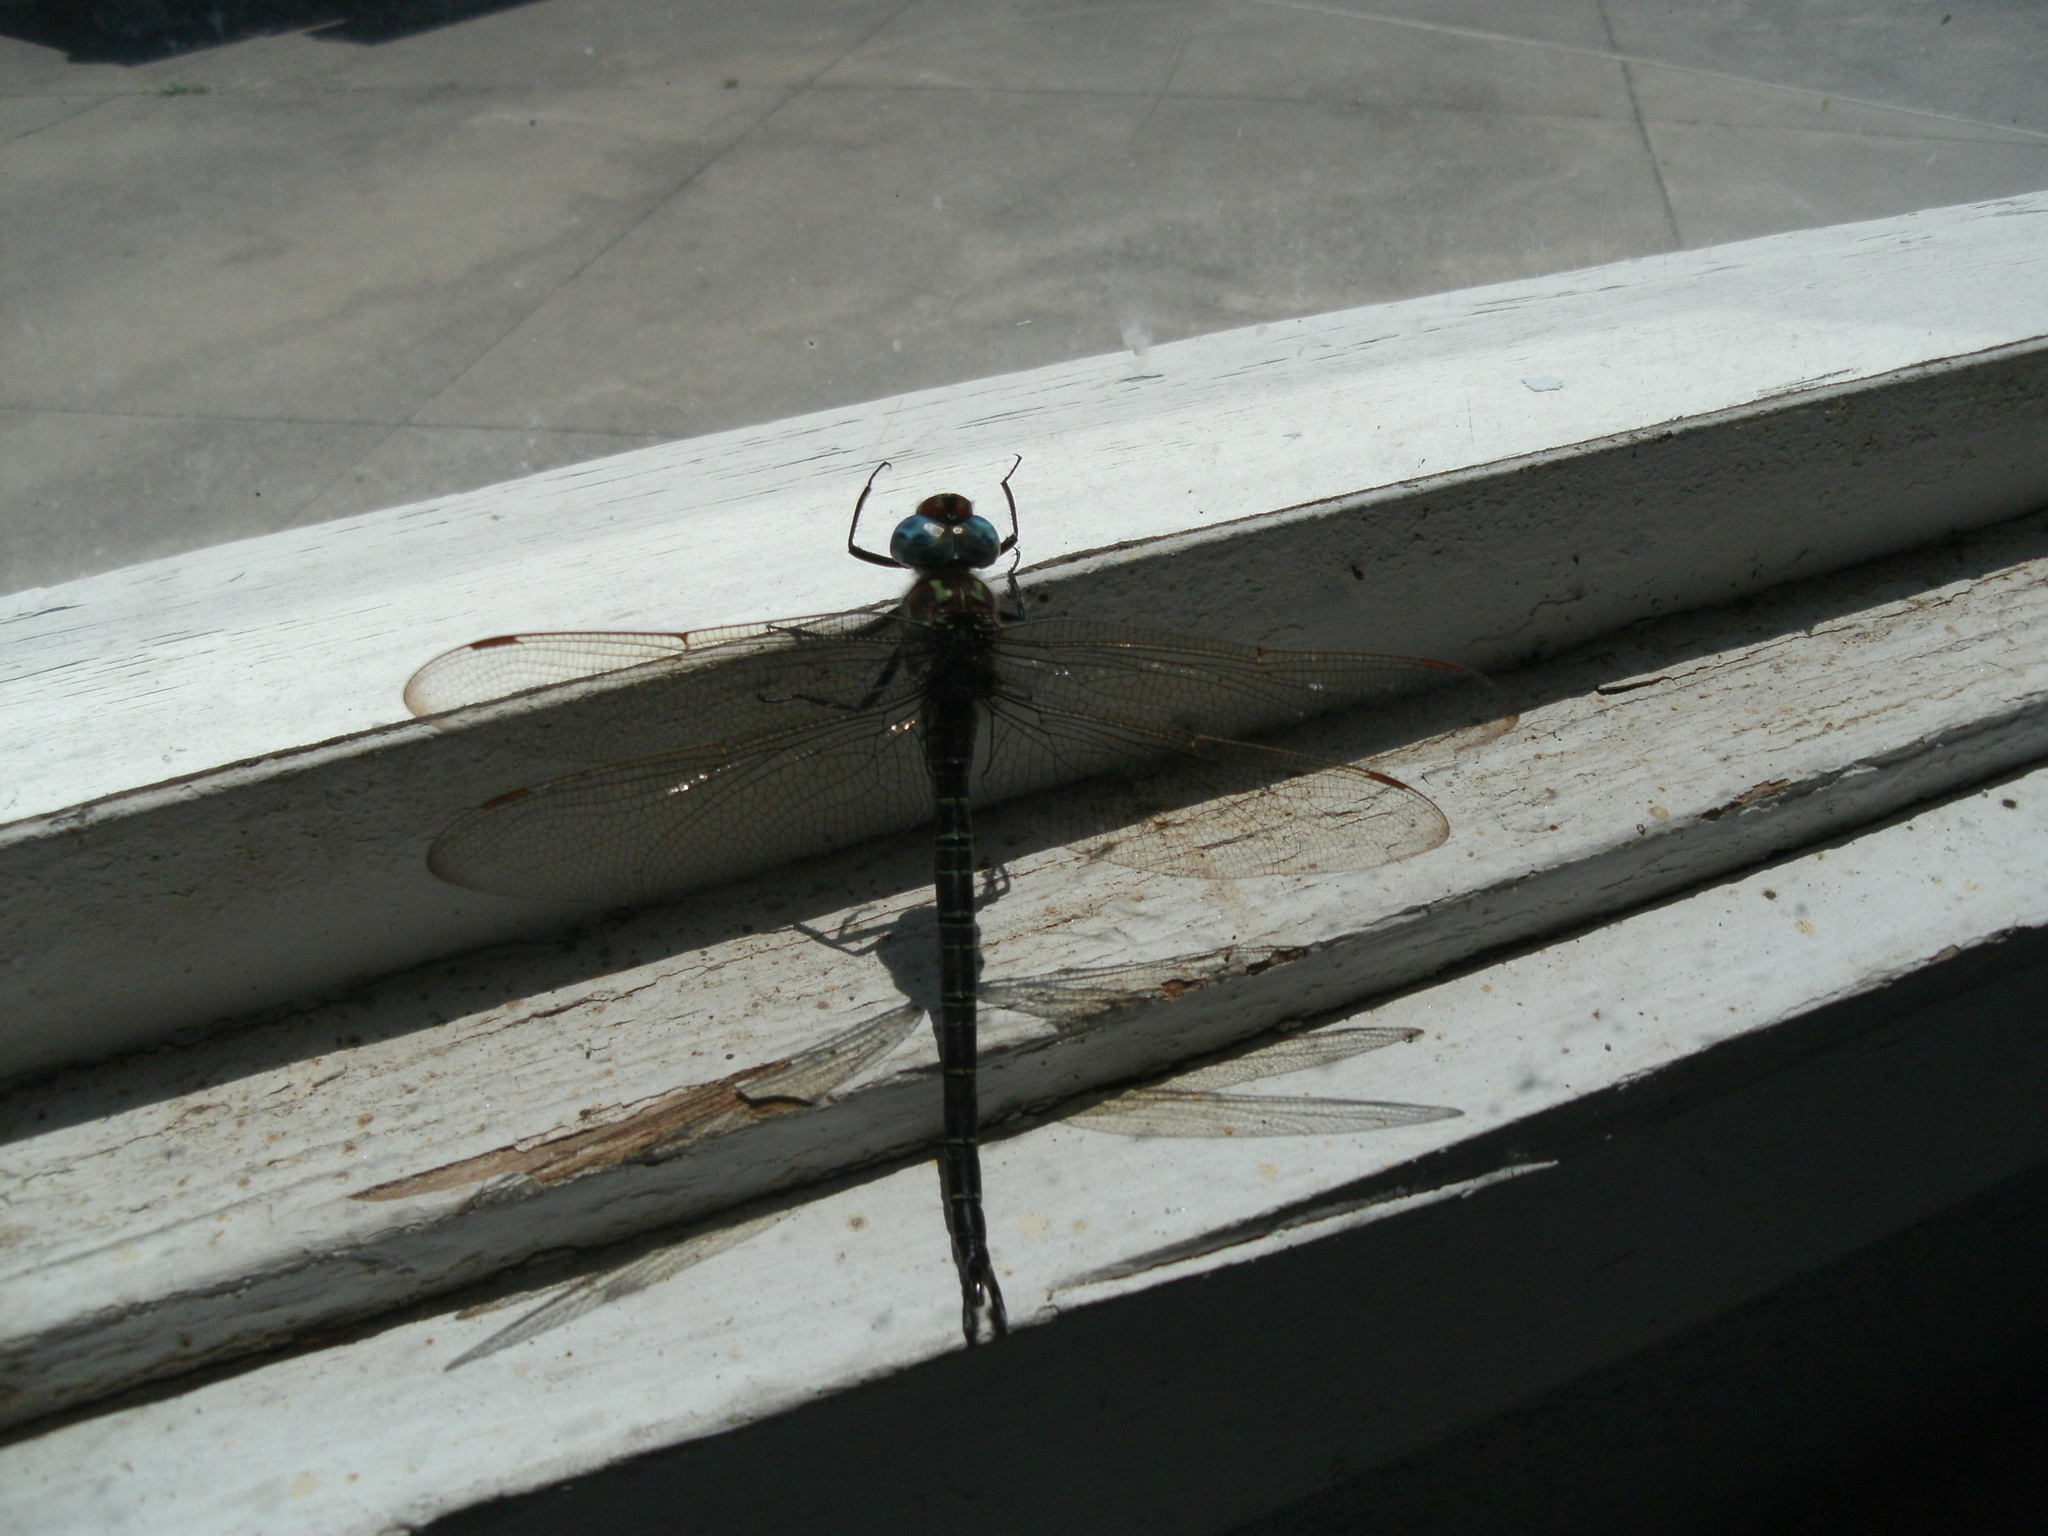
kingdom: Animalia
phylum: Arthropoda
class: Insecta
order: Odonata
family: Aeshnidae
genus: Epiaeschna
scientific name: Epiaeschna heros
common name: Swamp darner
